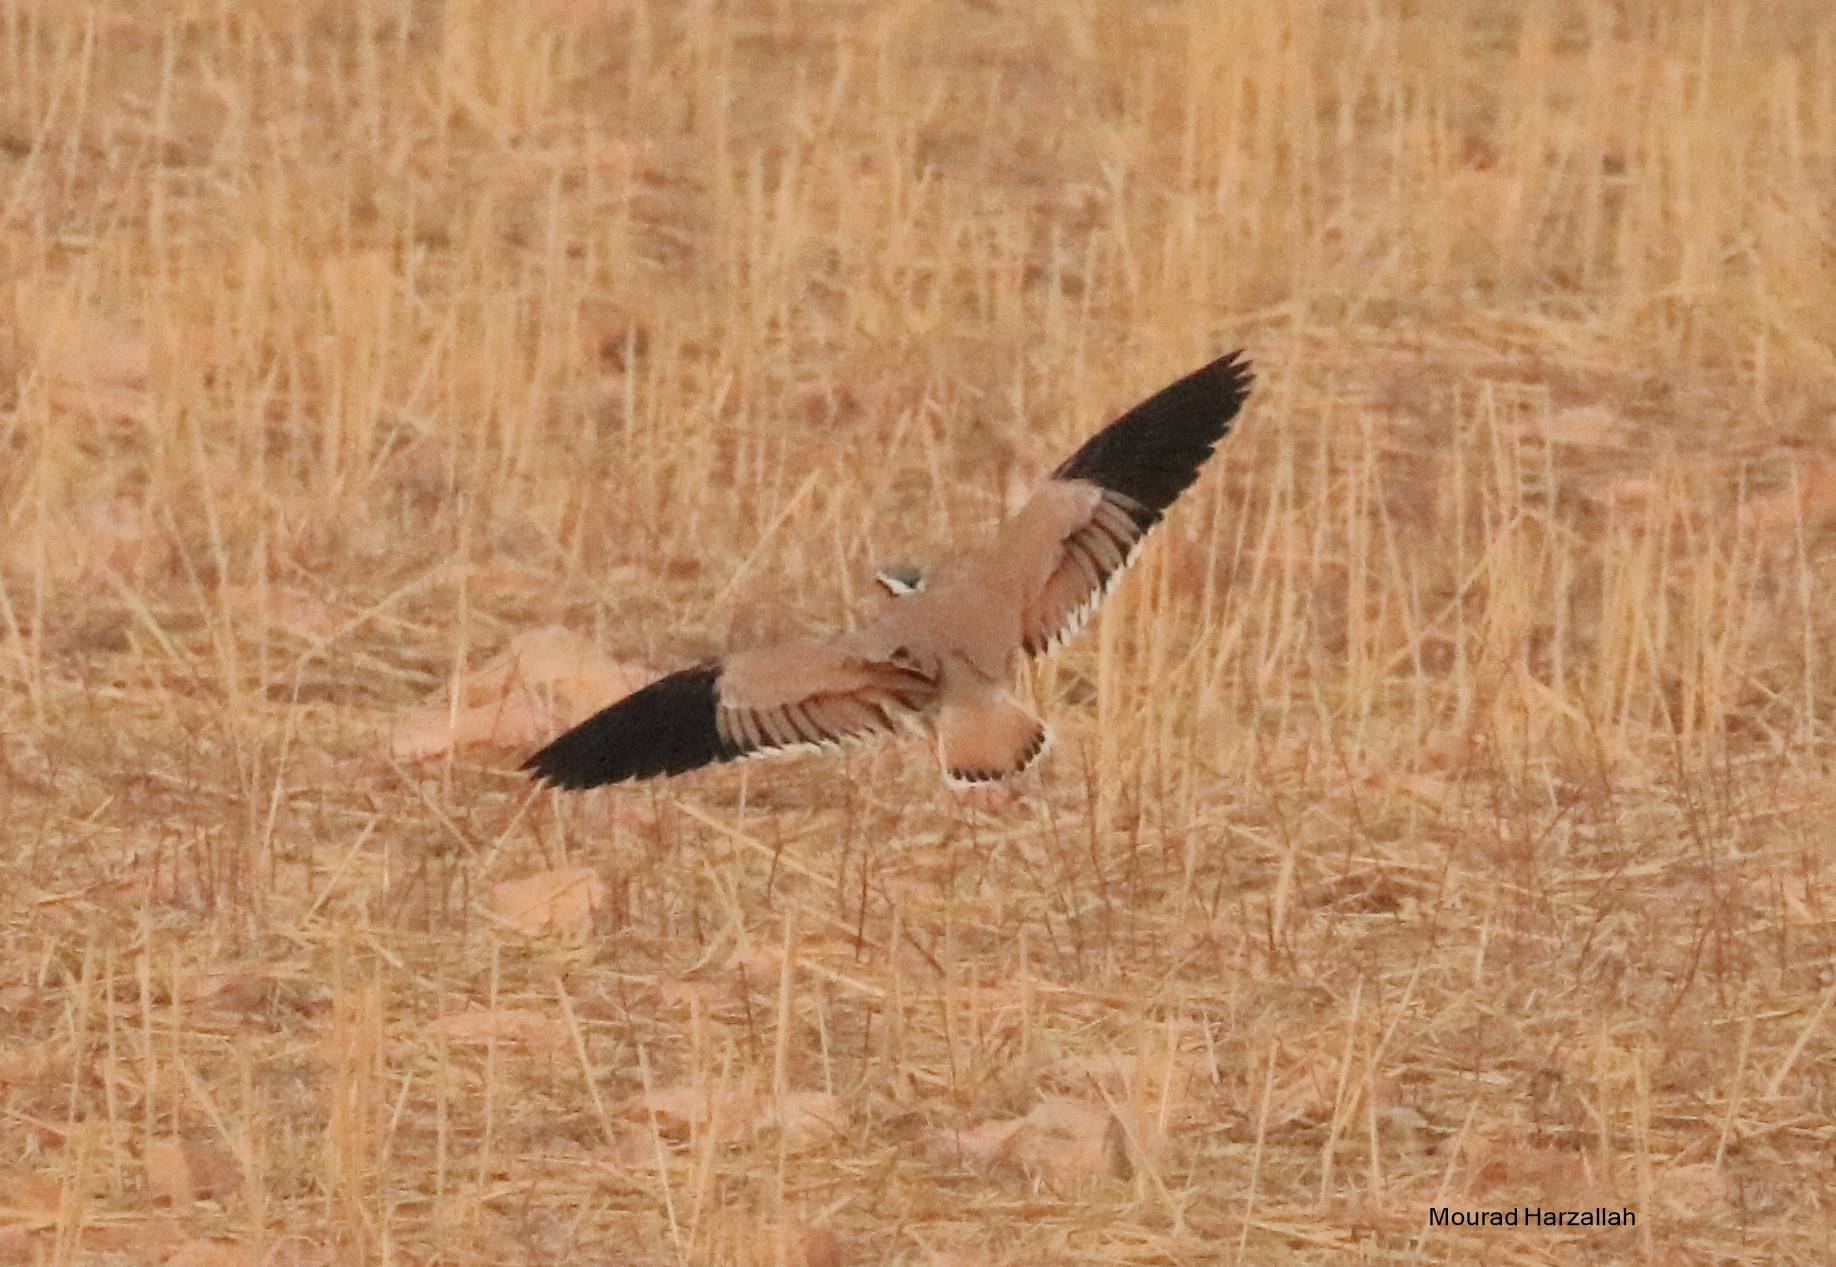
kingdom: Animalia
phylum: Chordata
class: Aves
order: Charadriiformes
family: Glareolidae
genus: Cursorius
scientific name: Cursorius cursor
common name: Cream-colored courser
